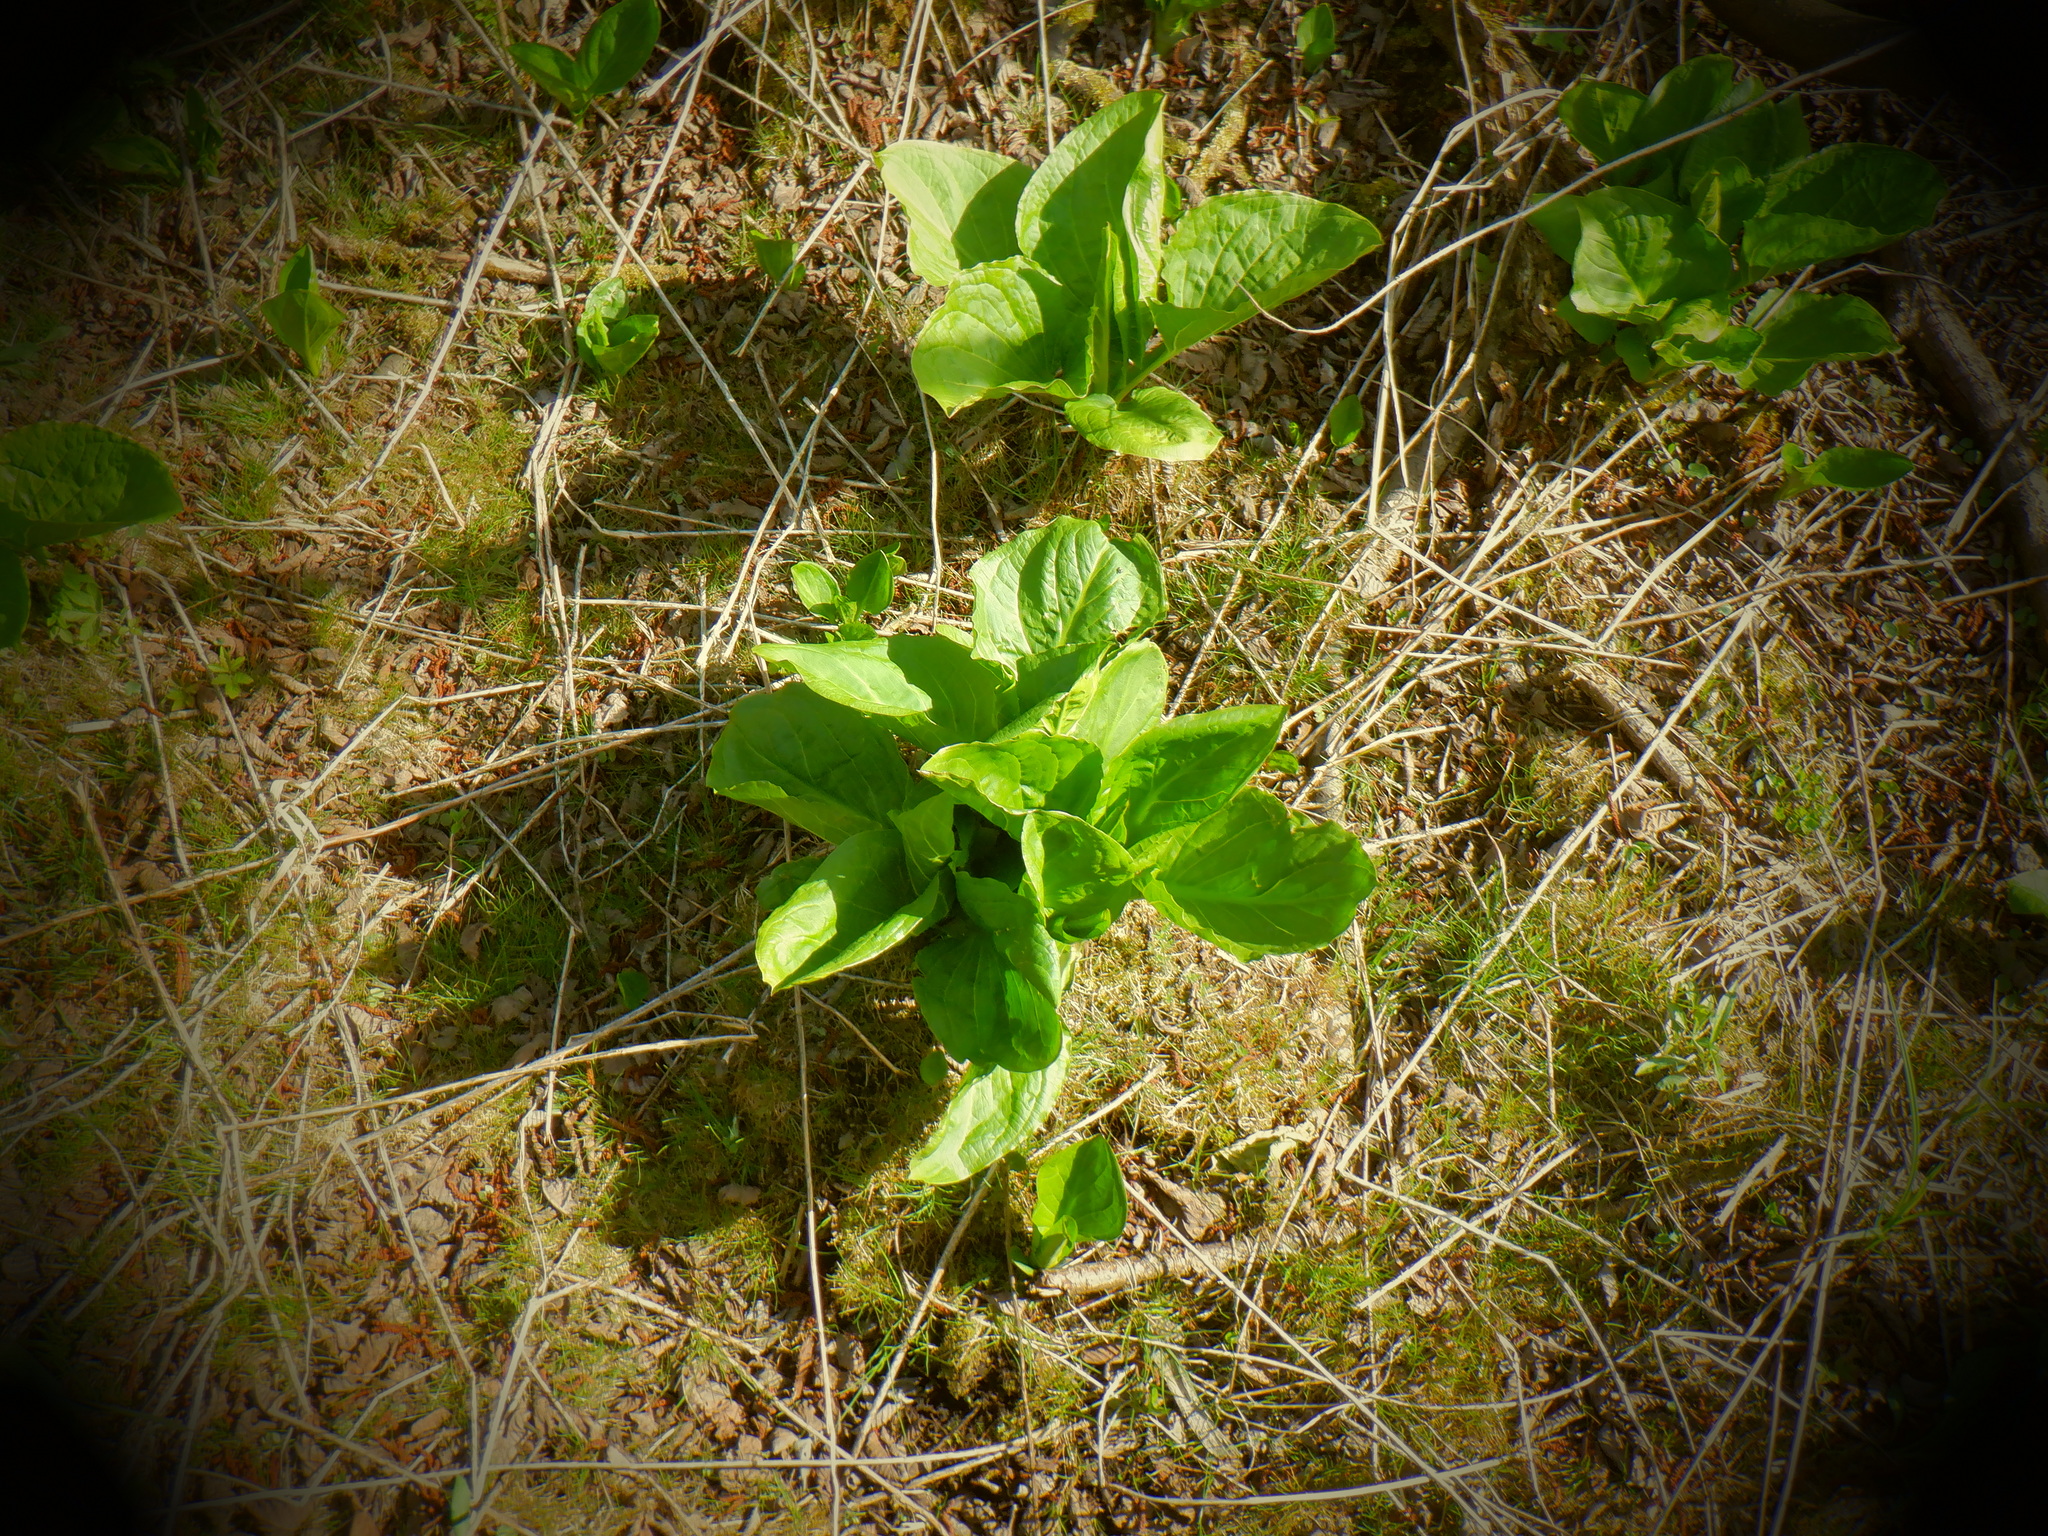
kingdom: Plantae
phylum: Tracheophyta
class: Liliopsida
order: Alismatales
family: Araceae
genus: Symplocarpus
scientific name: Symplocarpus foetidus
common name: Eastern skunk cabbage
